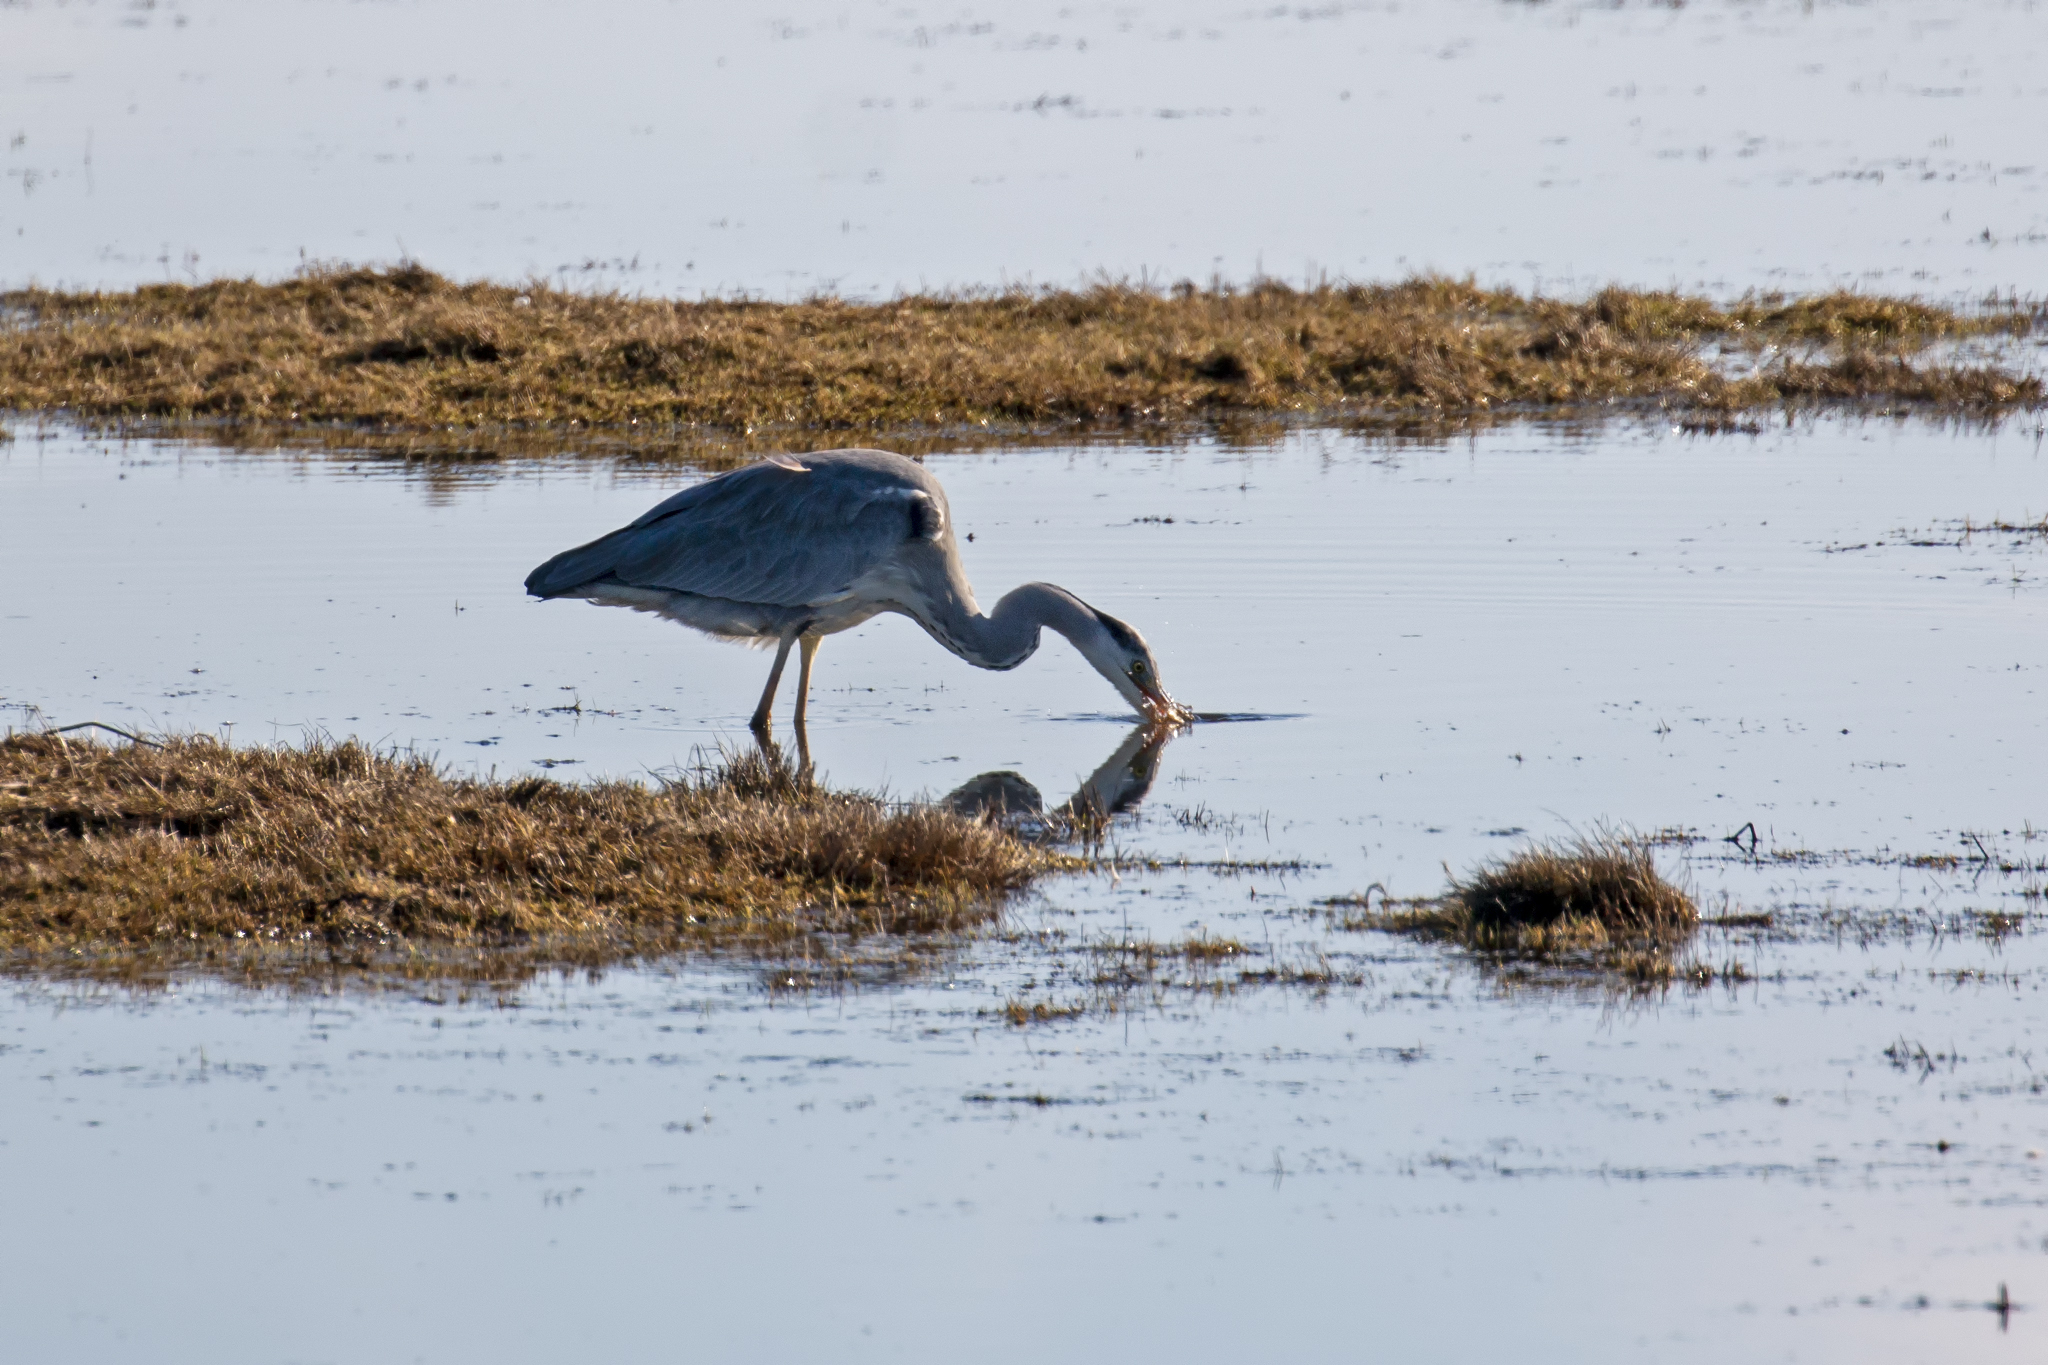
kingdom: Animalia
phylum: Chordata
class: Aves
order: Pelecaniformes
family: Ardeidae
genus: Ardea
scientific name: Ardea cinerea
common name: Grey heron
